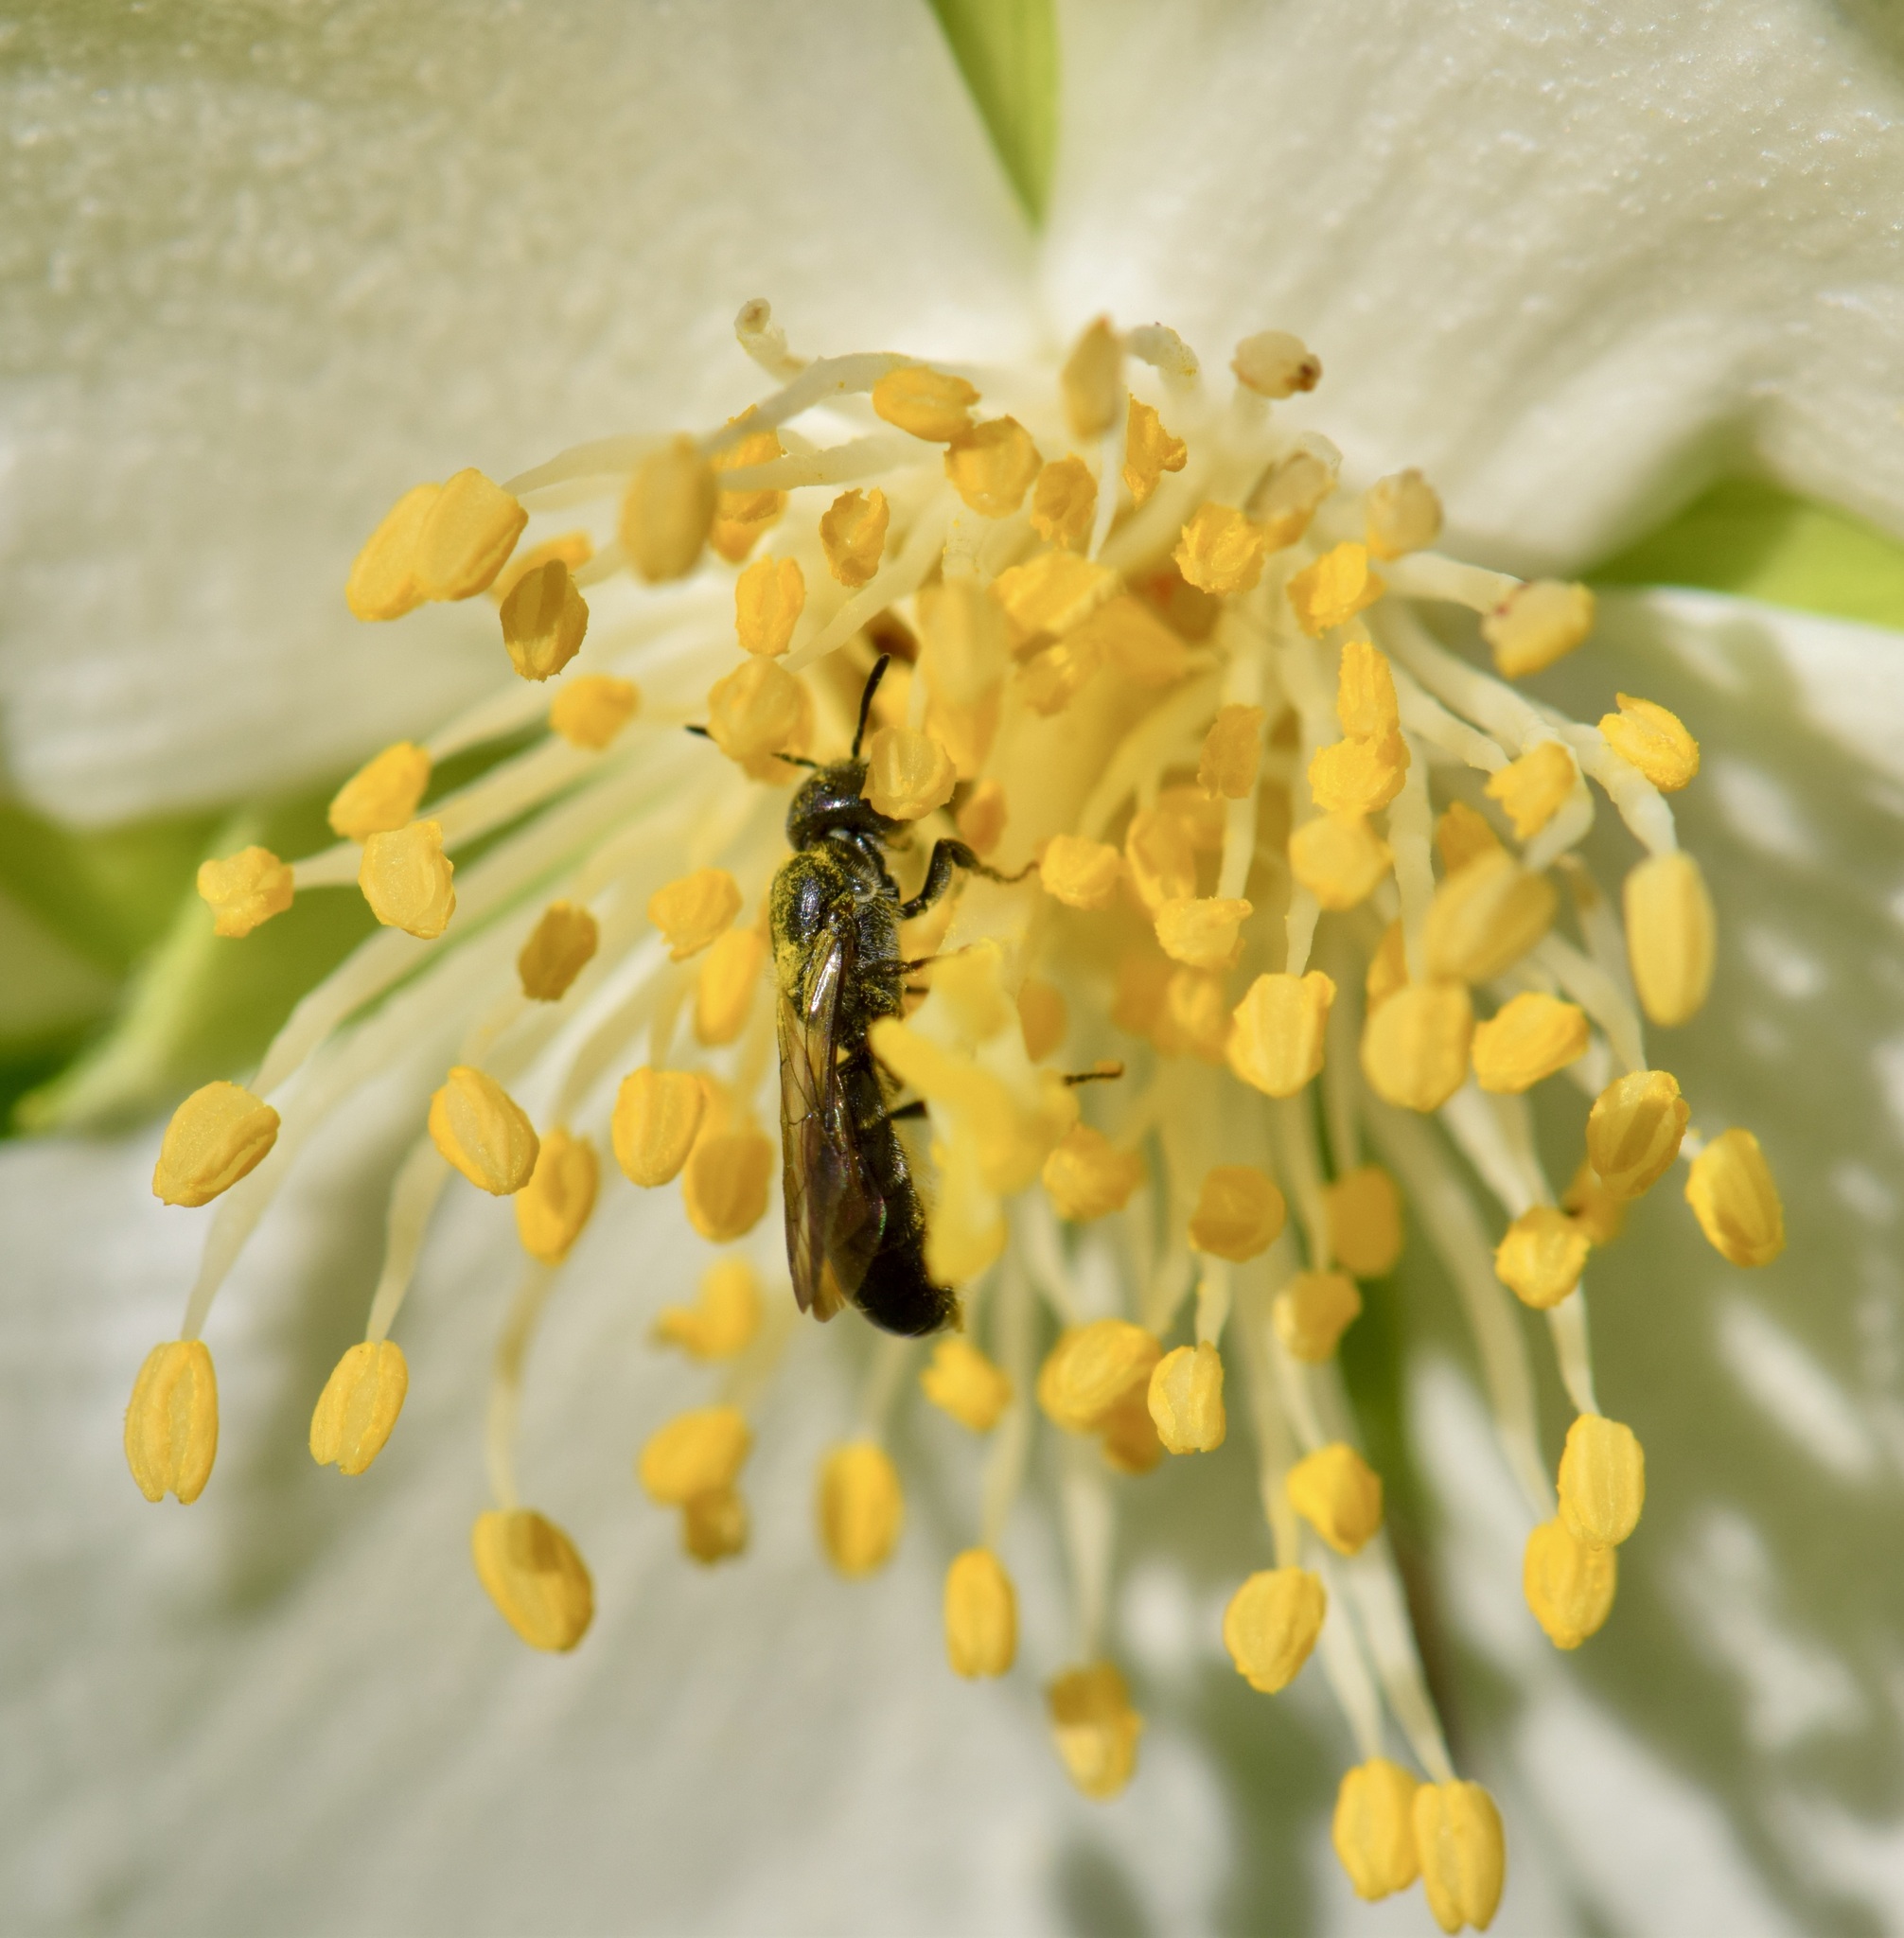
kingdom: Animalia
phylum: Arthropoda
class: Insecta
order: Hymenoptera
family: Megachilidae
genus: Chelostoma
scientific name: Chelostoma philadelphi
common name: Mock-orange scissor bee
